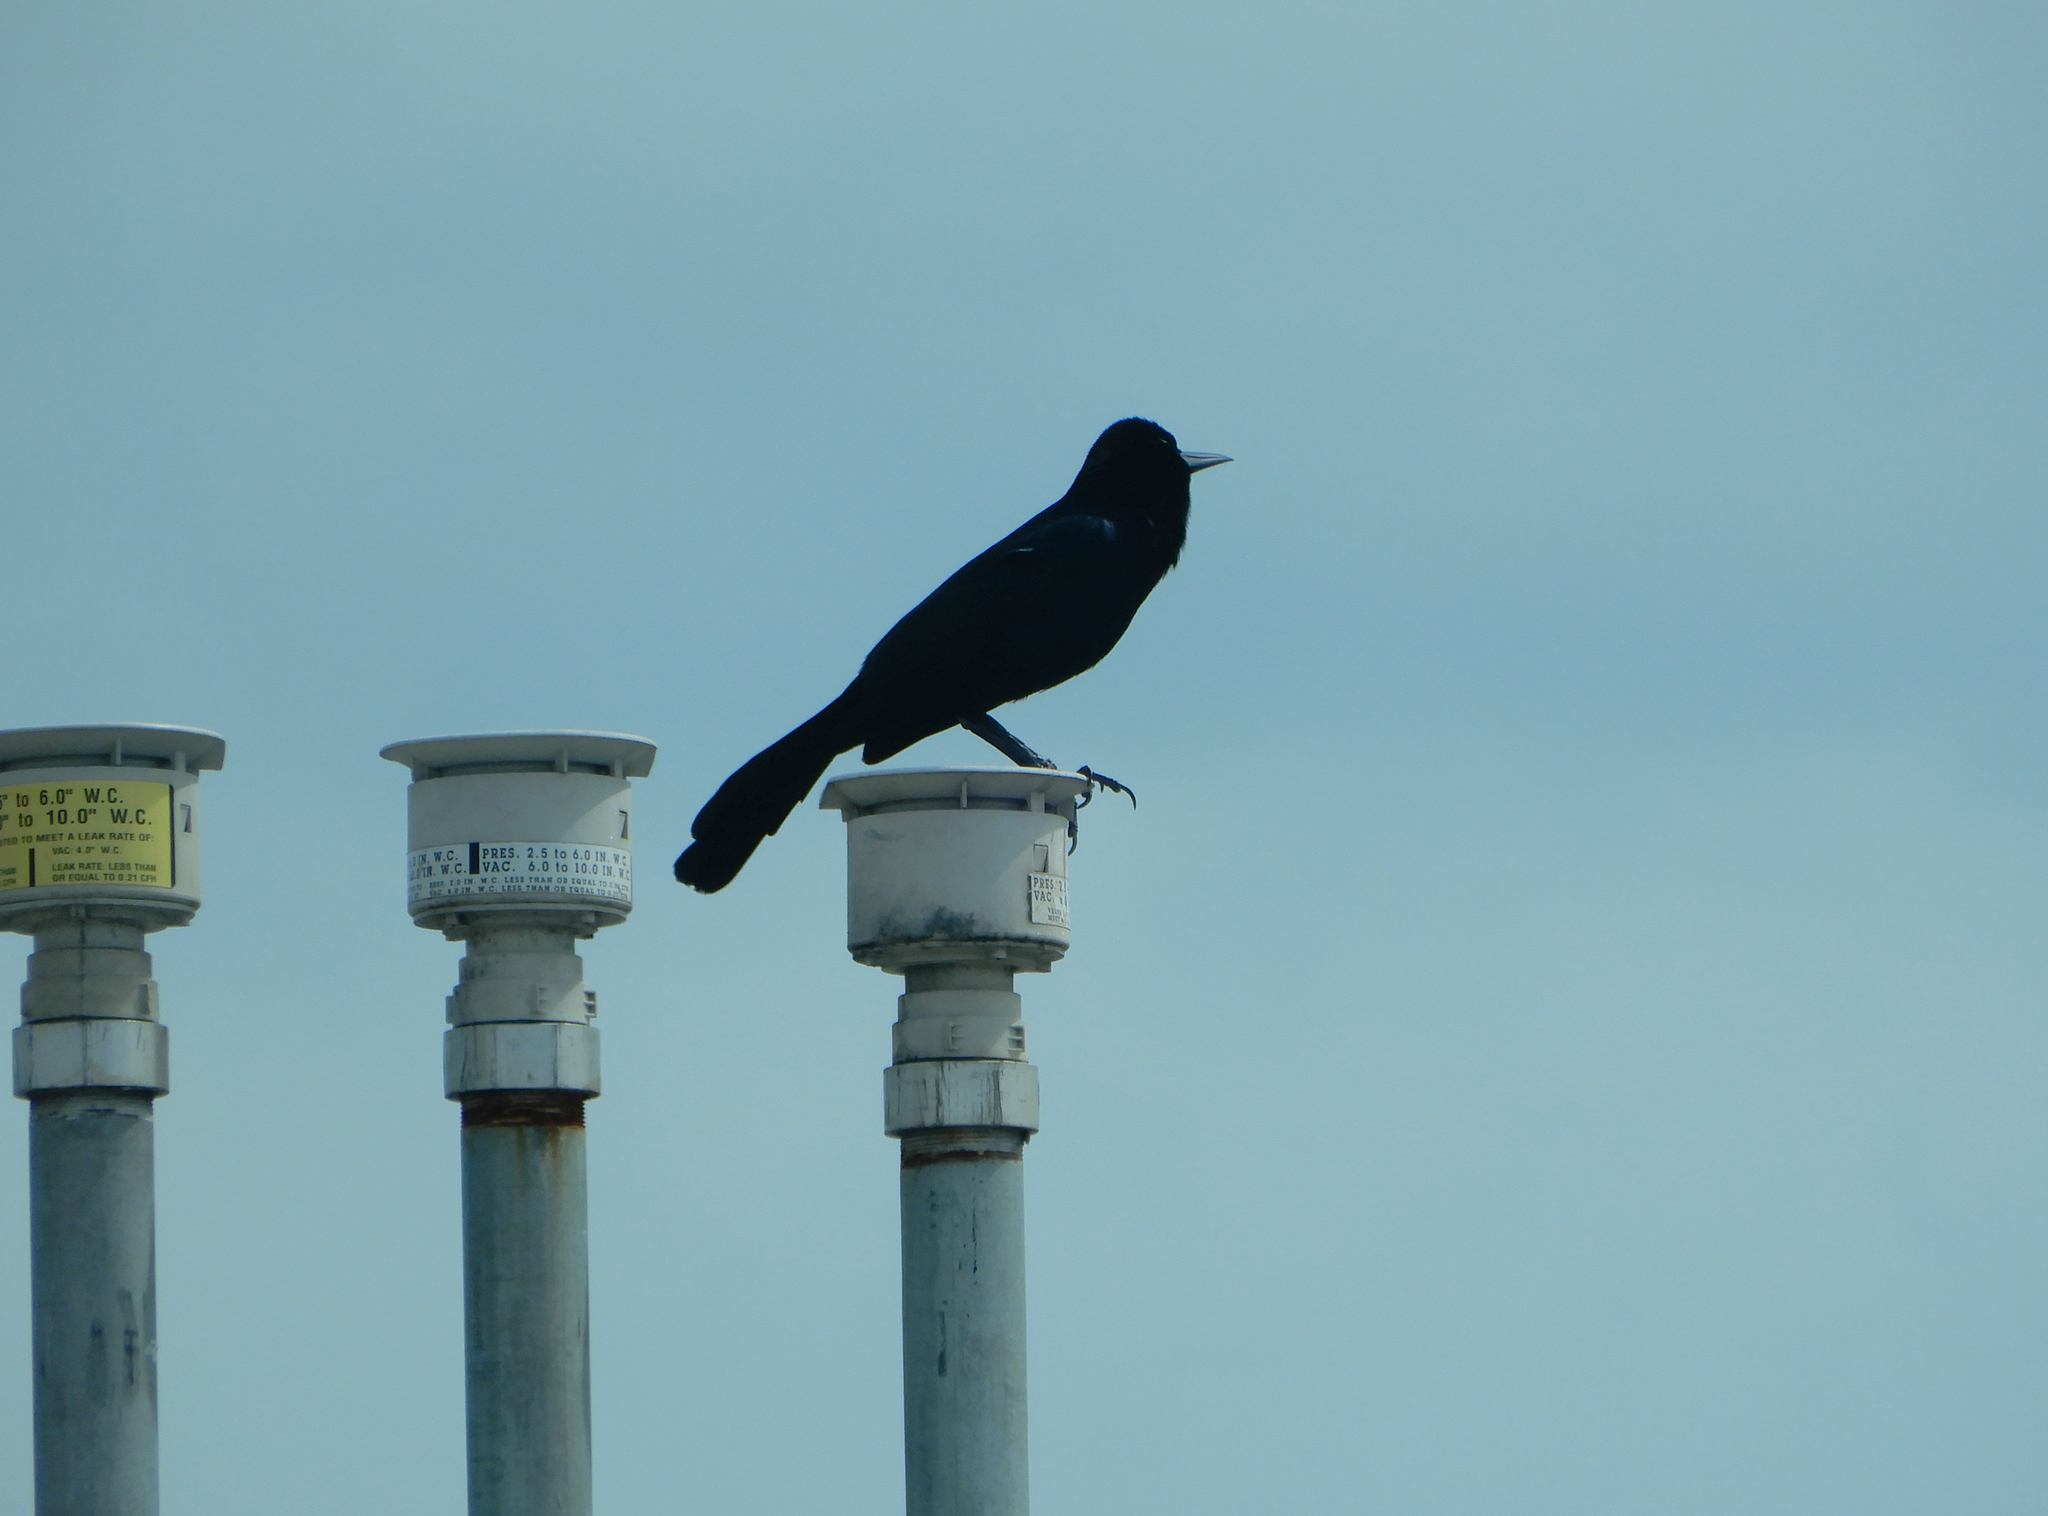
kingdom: Animalia
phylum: Chordata
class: Aves
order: Passeriformes
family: Icteridae
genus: Quiscalus
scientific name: Quiscalus major
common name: Boat-tailed grackle
